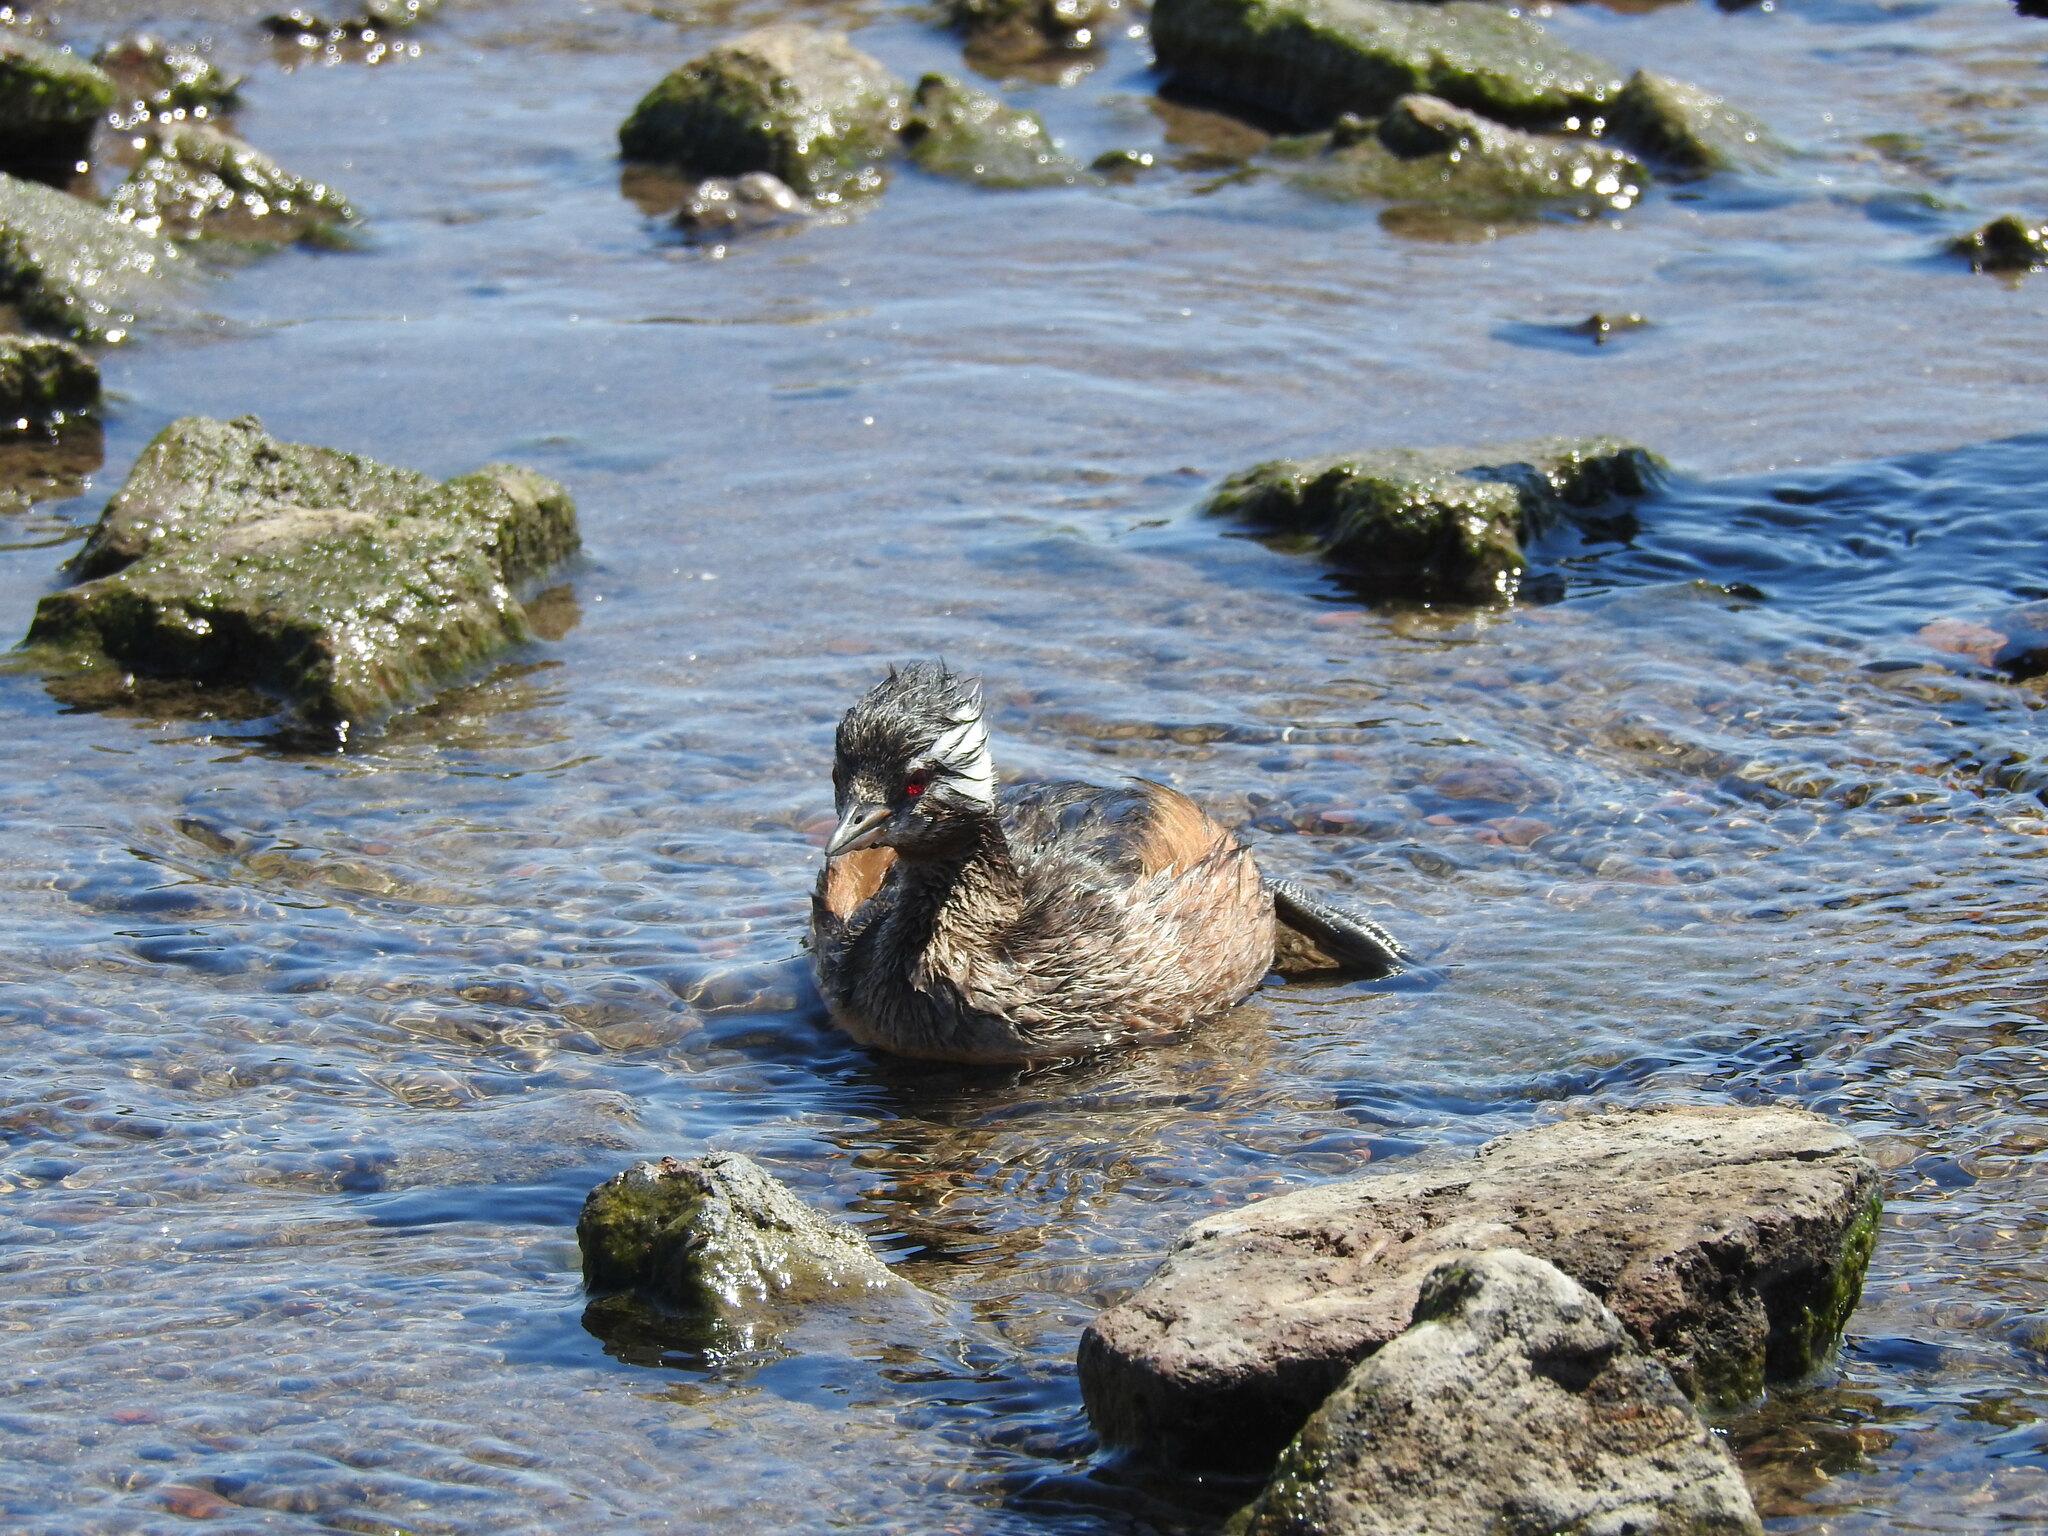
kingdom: Animalia
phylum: Chordata
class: Aves
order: Podicipediformes
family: Podicipedidae
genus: Rollandia
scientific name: Rollandia rolland
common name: White-tufted grebe
